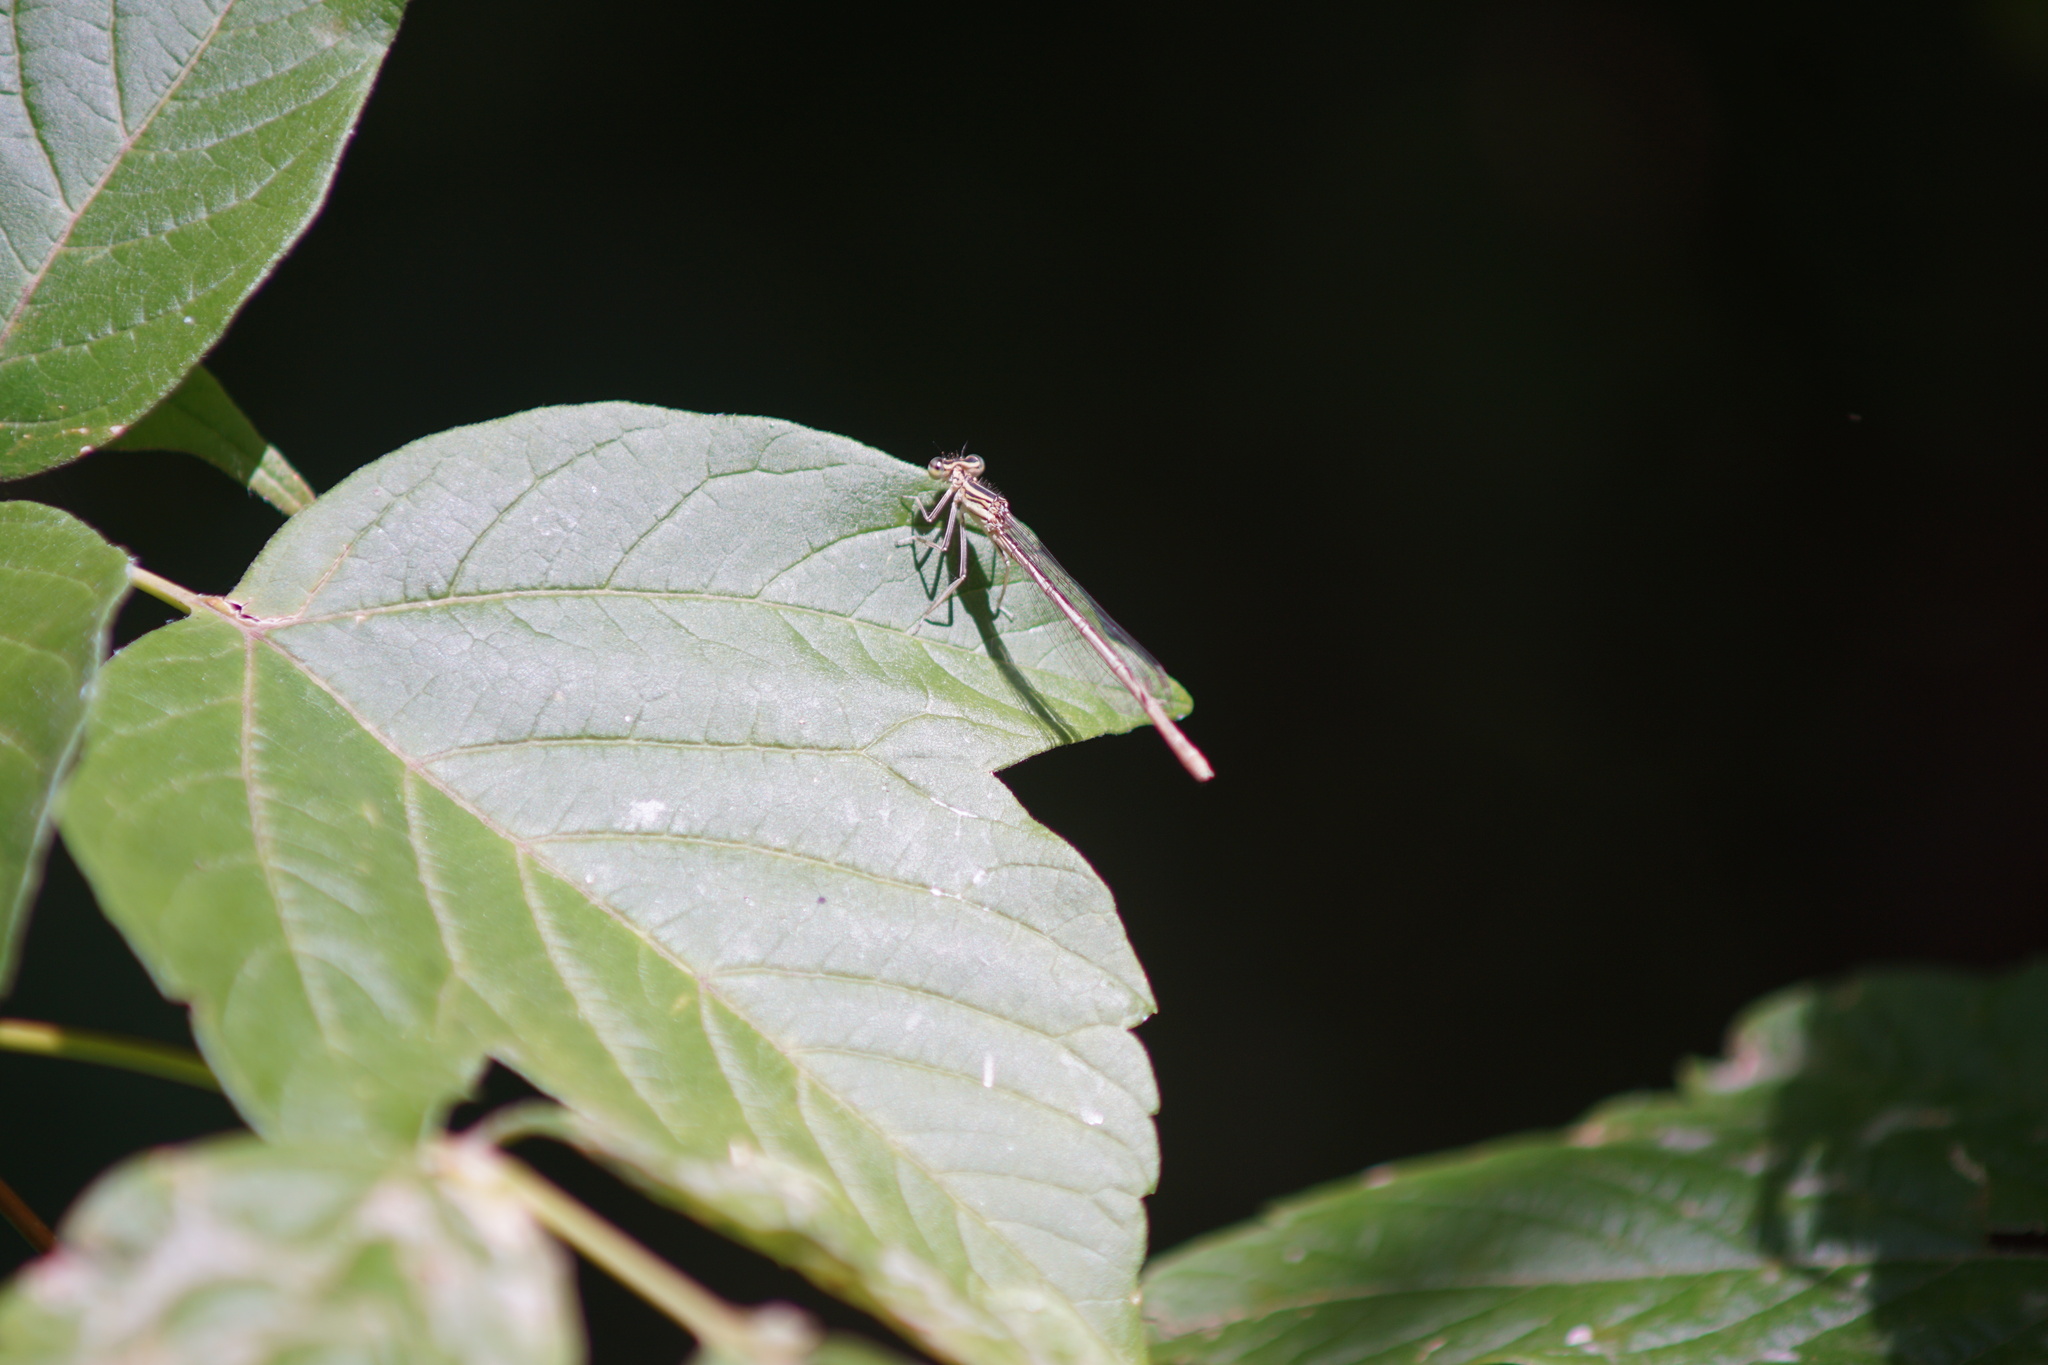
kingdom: Animalia
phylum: Arthropoda
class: Insecta
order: Odonata
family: Platycnemididae
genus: Platycnemis
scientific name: Platycnemis pennipes
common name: White-legged damselfly
